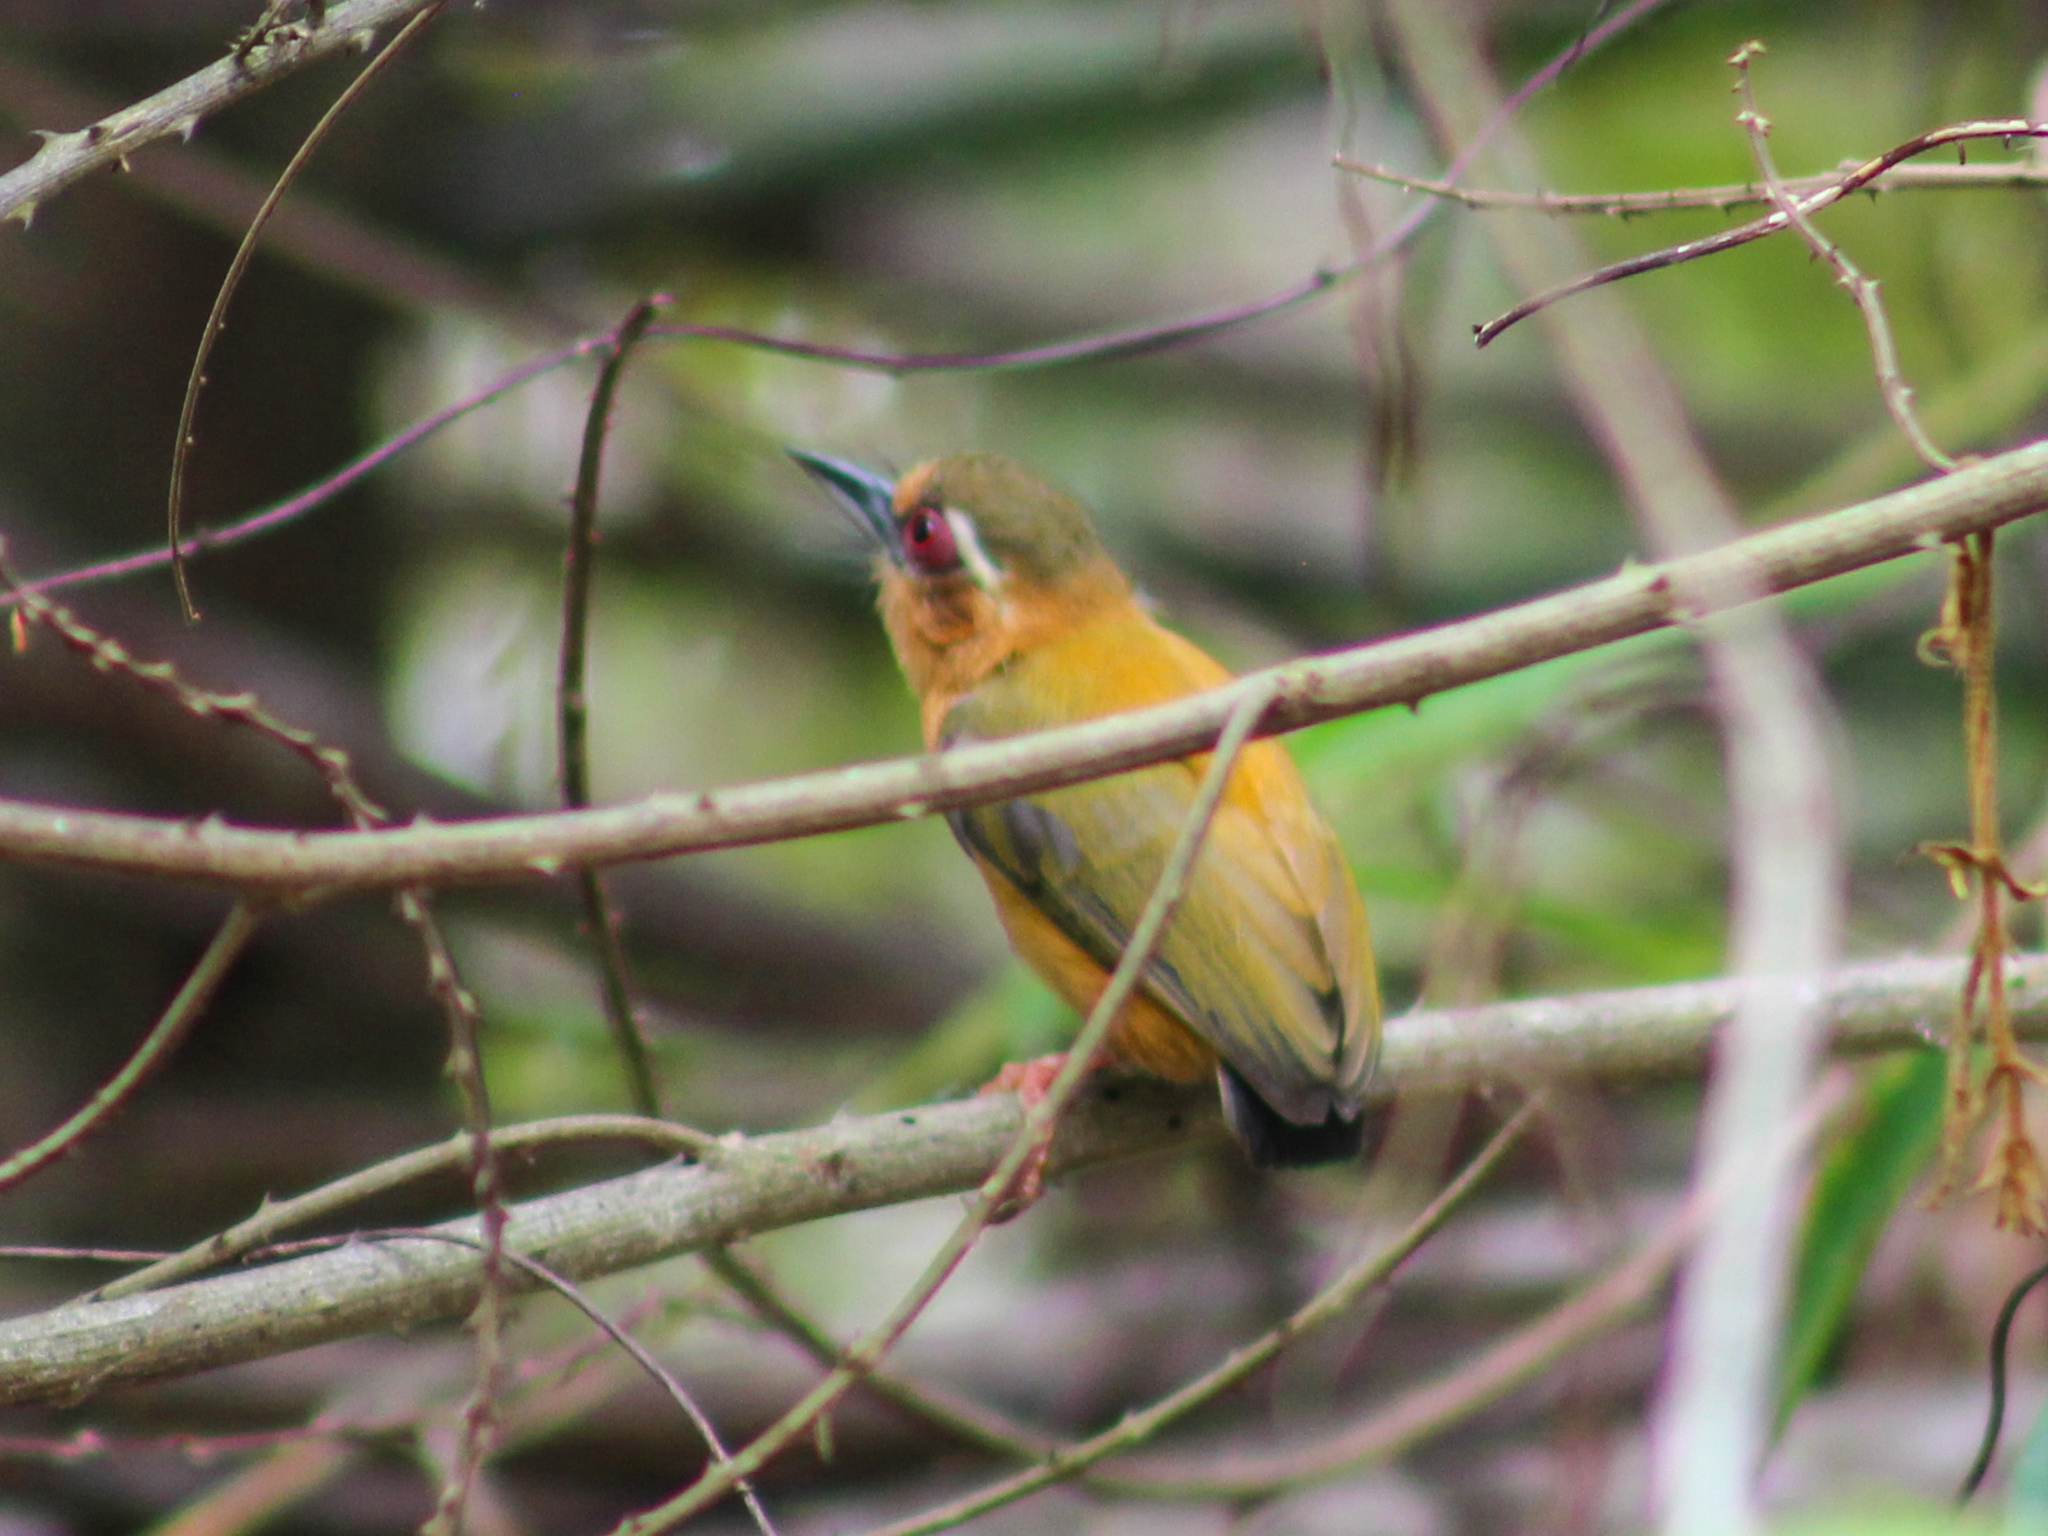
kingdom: Animalia
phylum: Chordata
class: Aves
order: Piciformes
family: Picidae
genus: Sasia
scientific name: Sasia ochracea
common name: White-browed piculet
